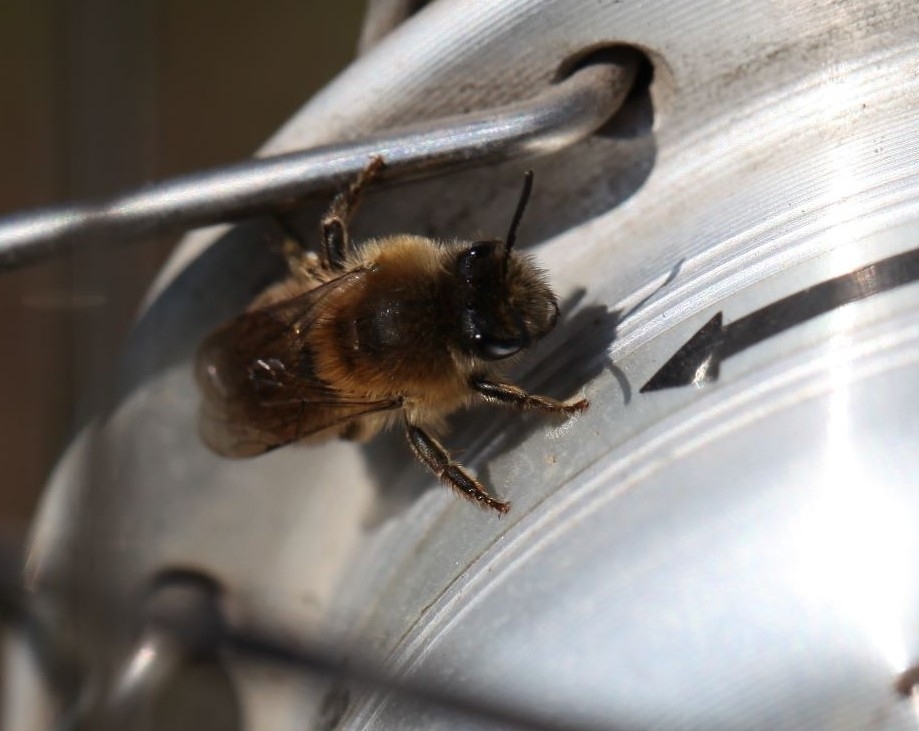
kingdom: Animalia
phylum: Arthropoda
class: Insecta
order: Hymenoptera
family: Colletidae
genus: Colletes
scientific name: Colletes cunicularius
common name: Early colletes
